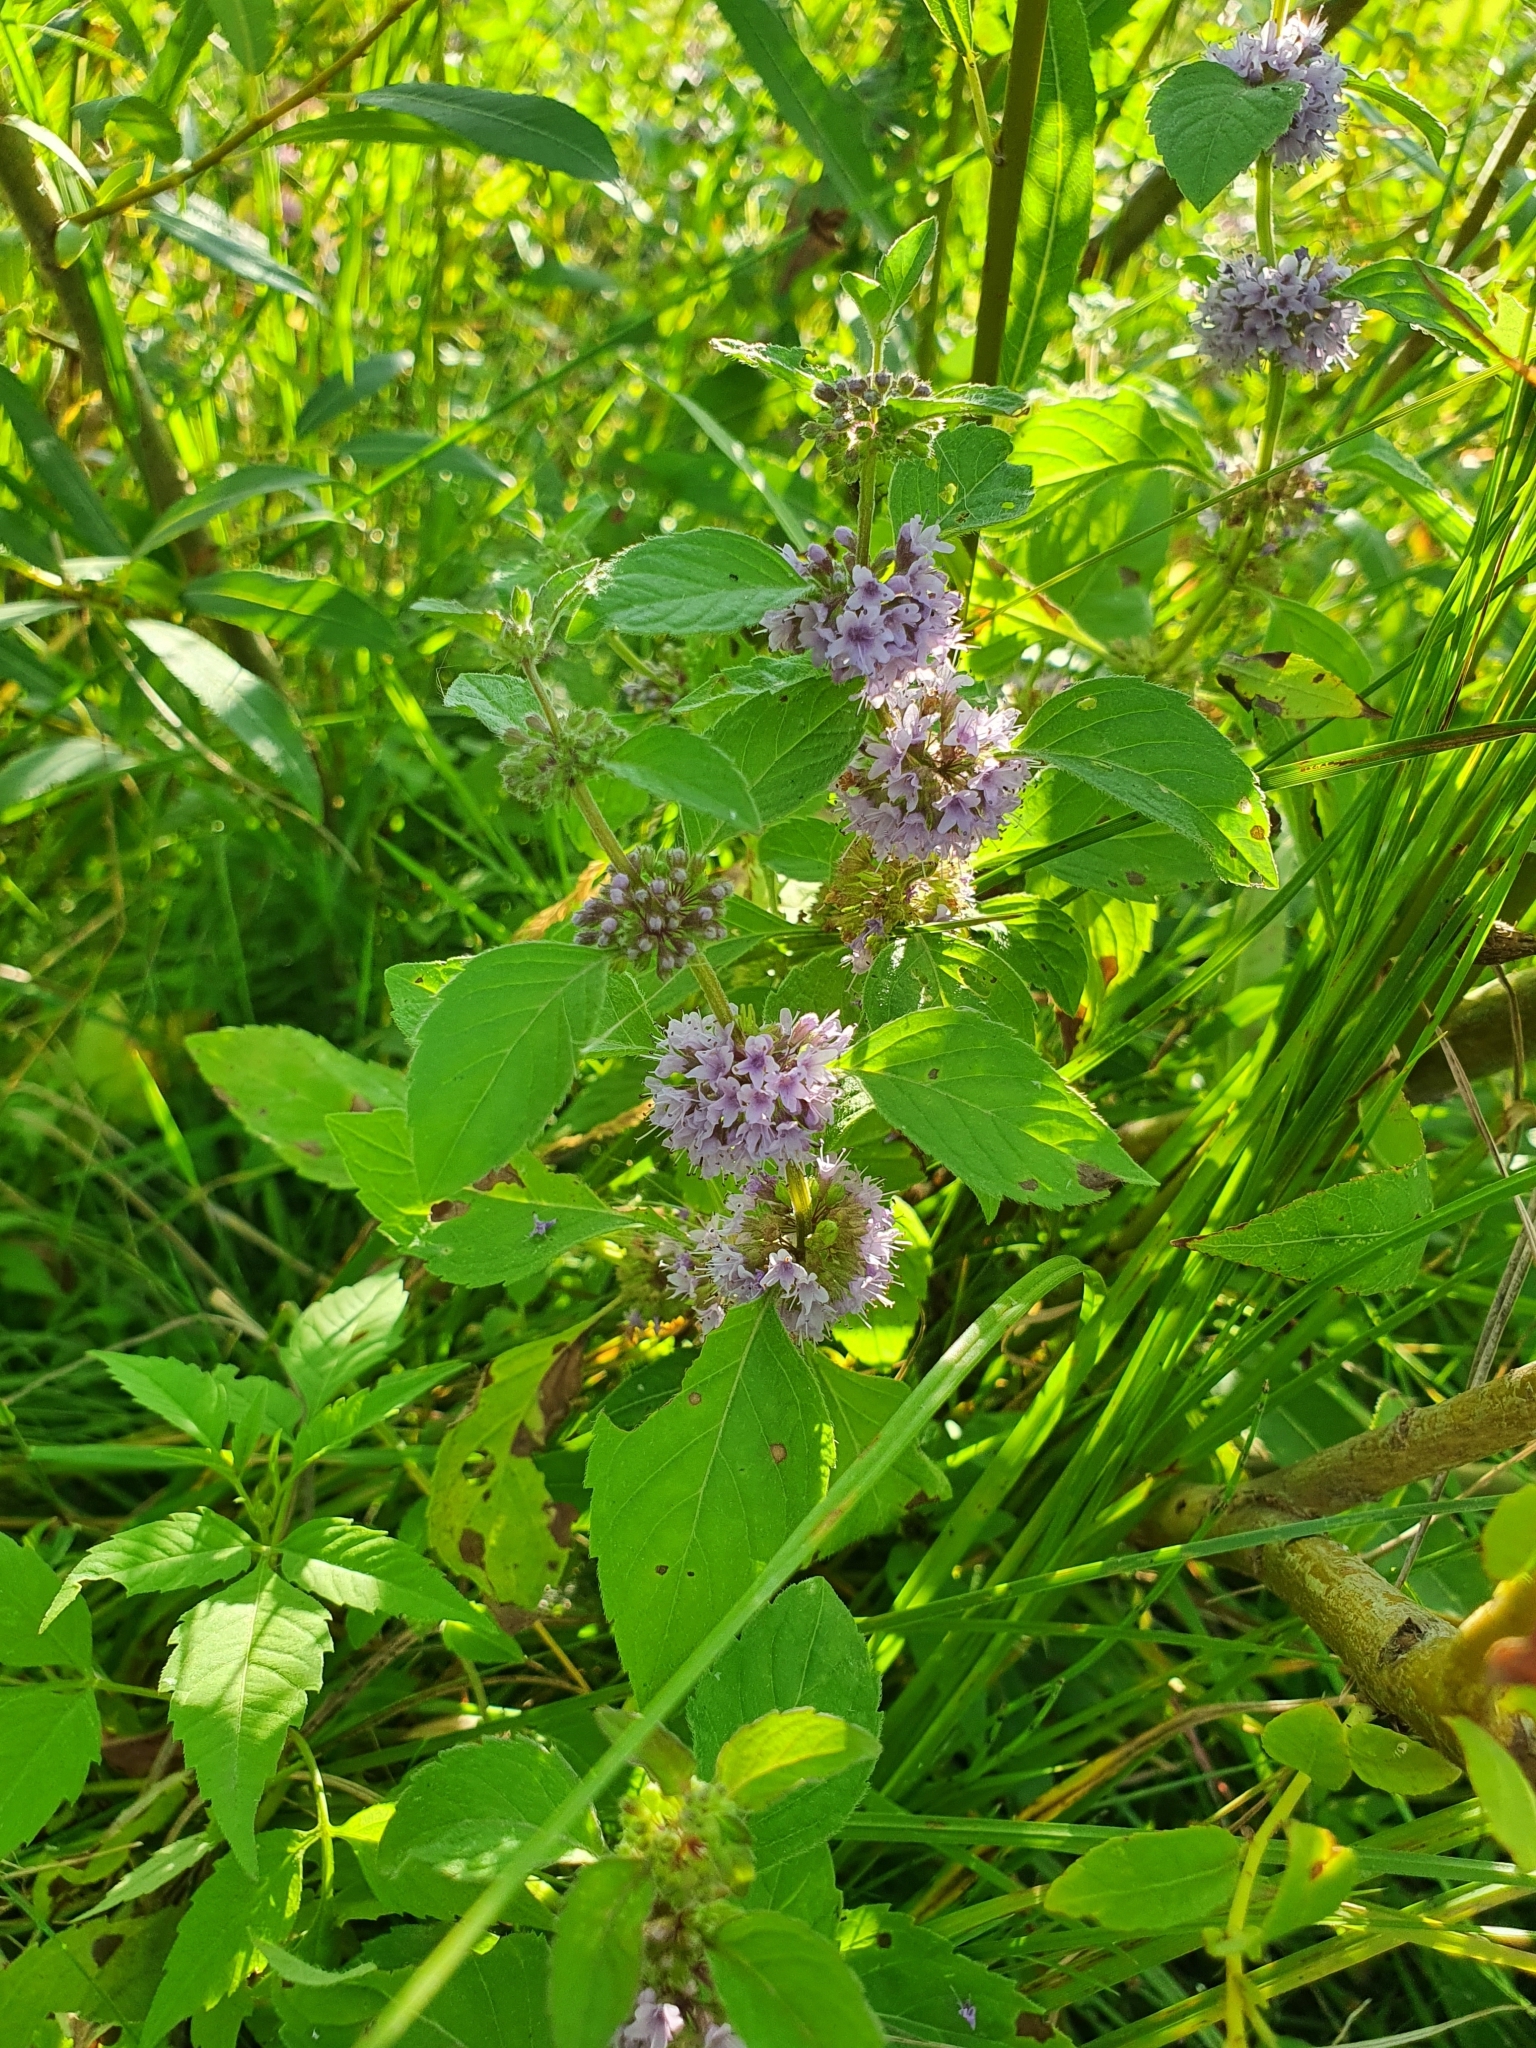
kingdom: Plantae
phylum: Tracheophyta
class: Magnoliopsida
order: Lamiales
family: Lamiaceae
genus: Mentha
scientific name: Mentha arvensis
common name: Corn mint
